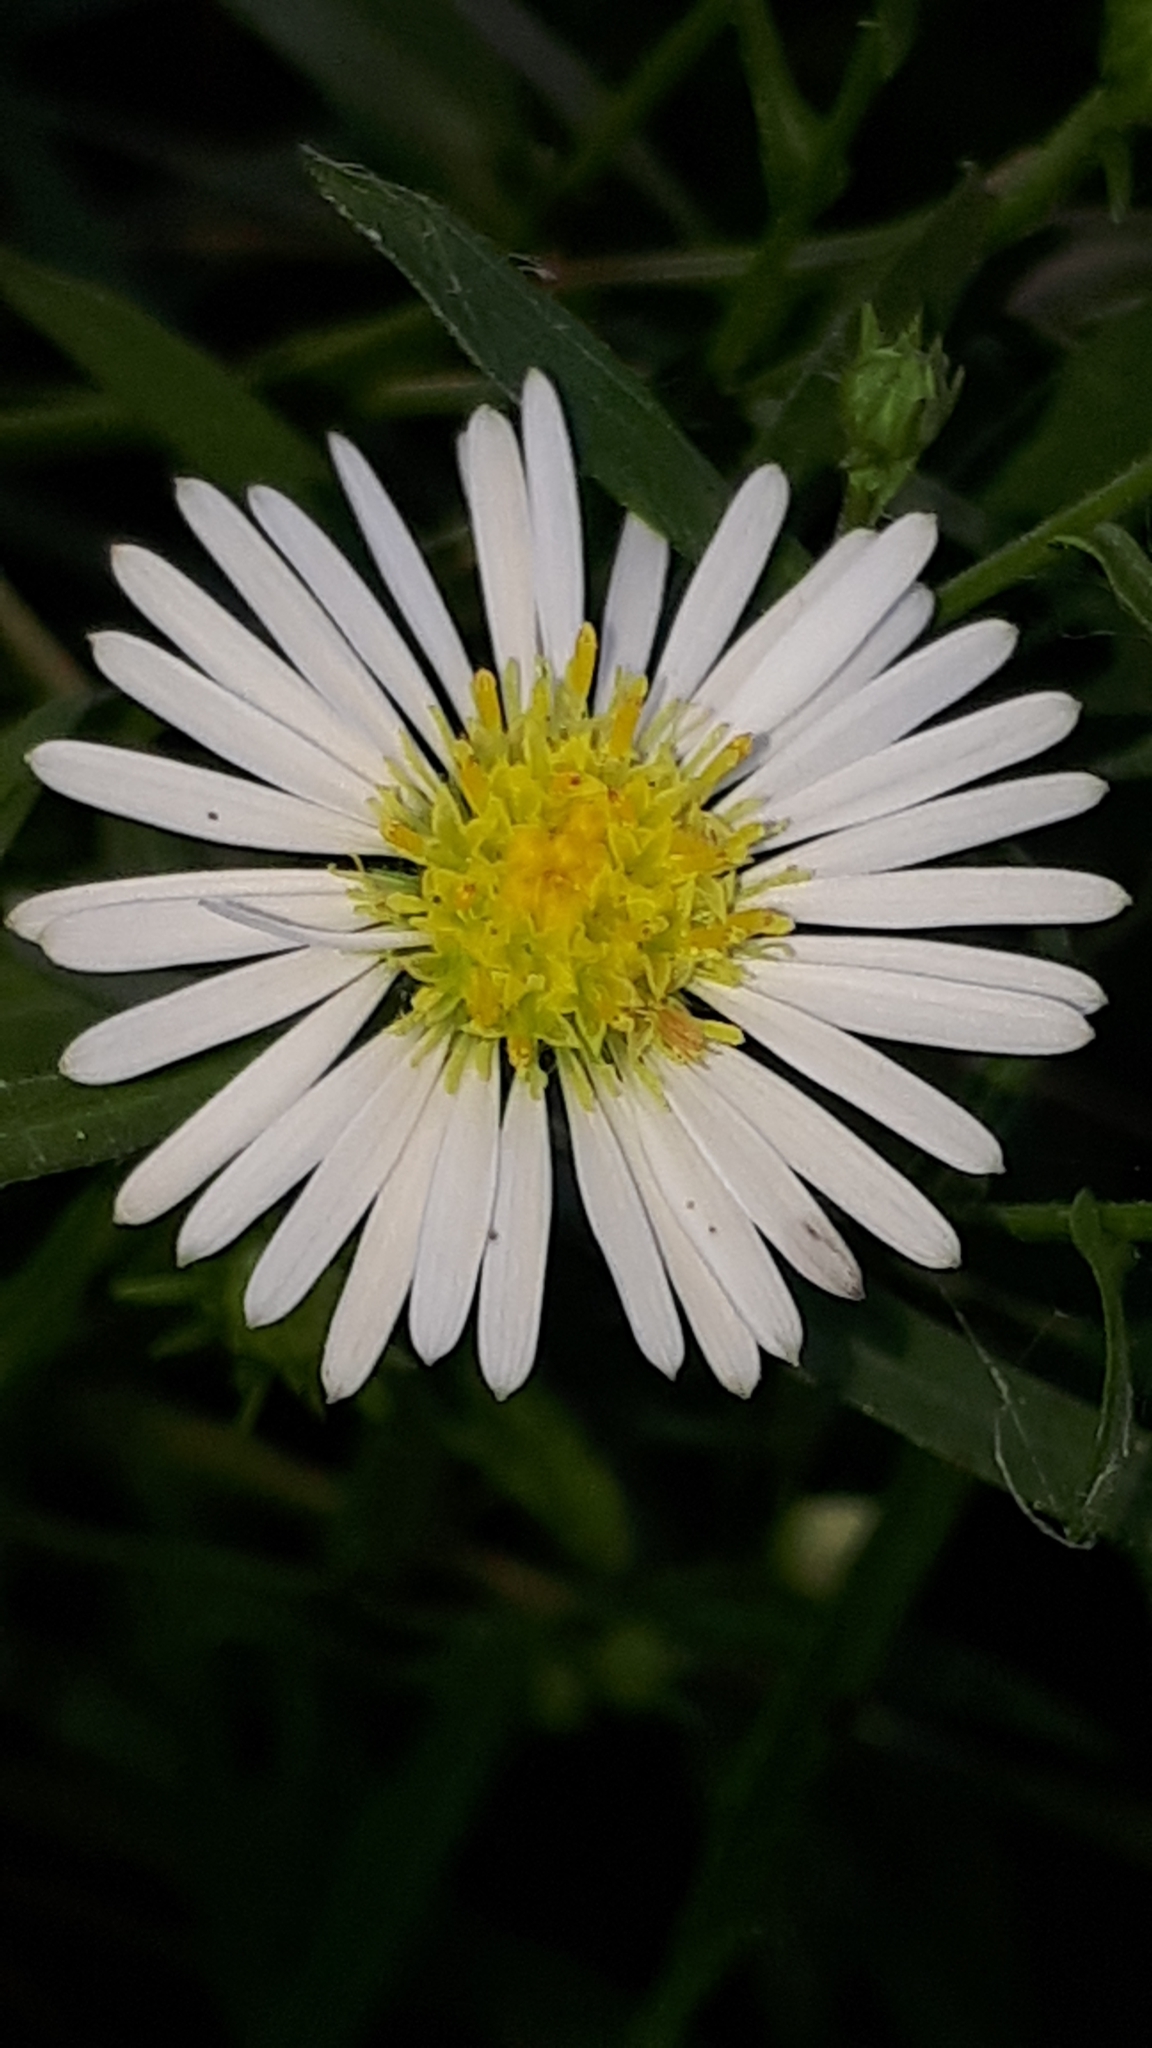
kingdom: Plantae
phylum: Tracheophyta
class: Magnoliopsida
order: Asterales
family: Asteraceae
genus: Symphyotrichum
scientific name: Symphyotrichum lanceolatum
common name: Panicled aster
